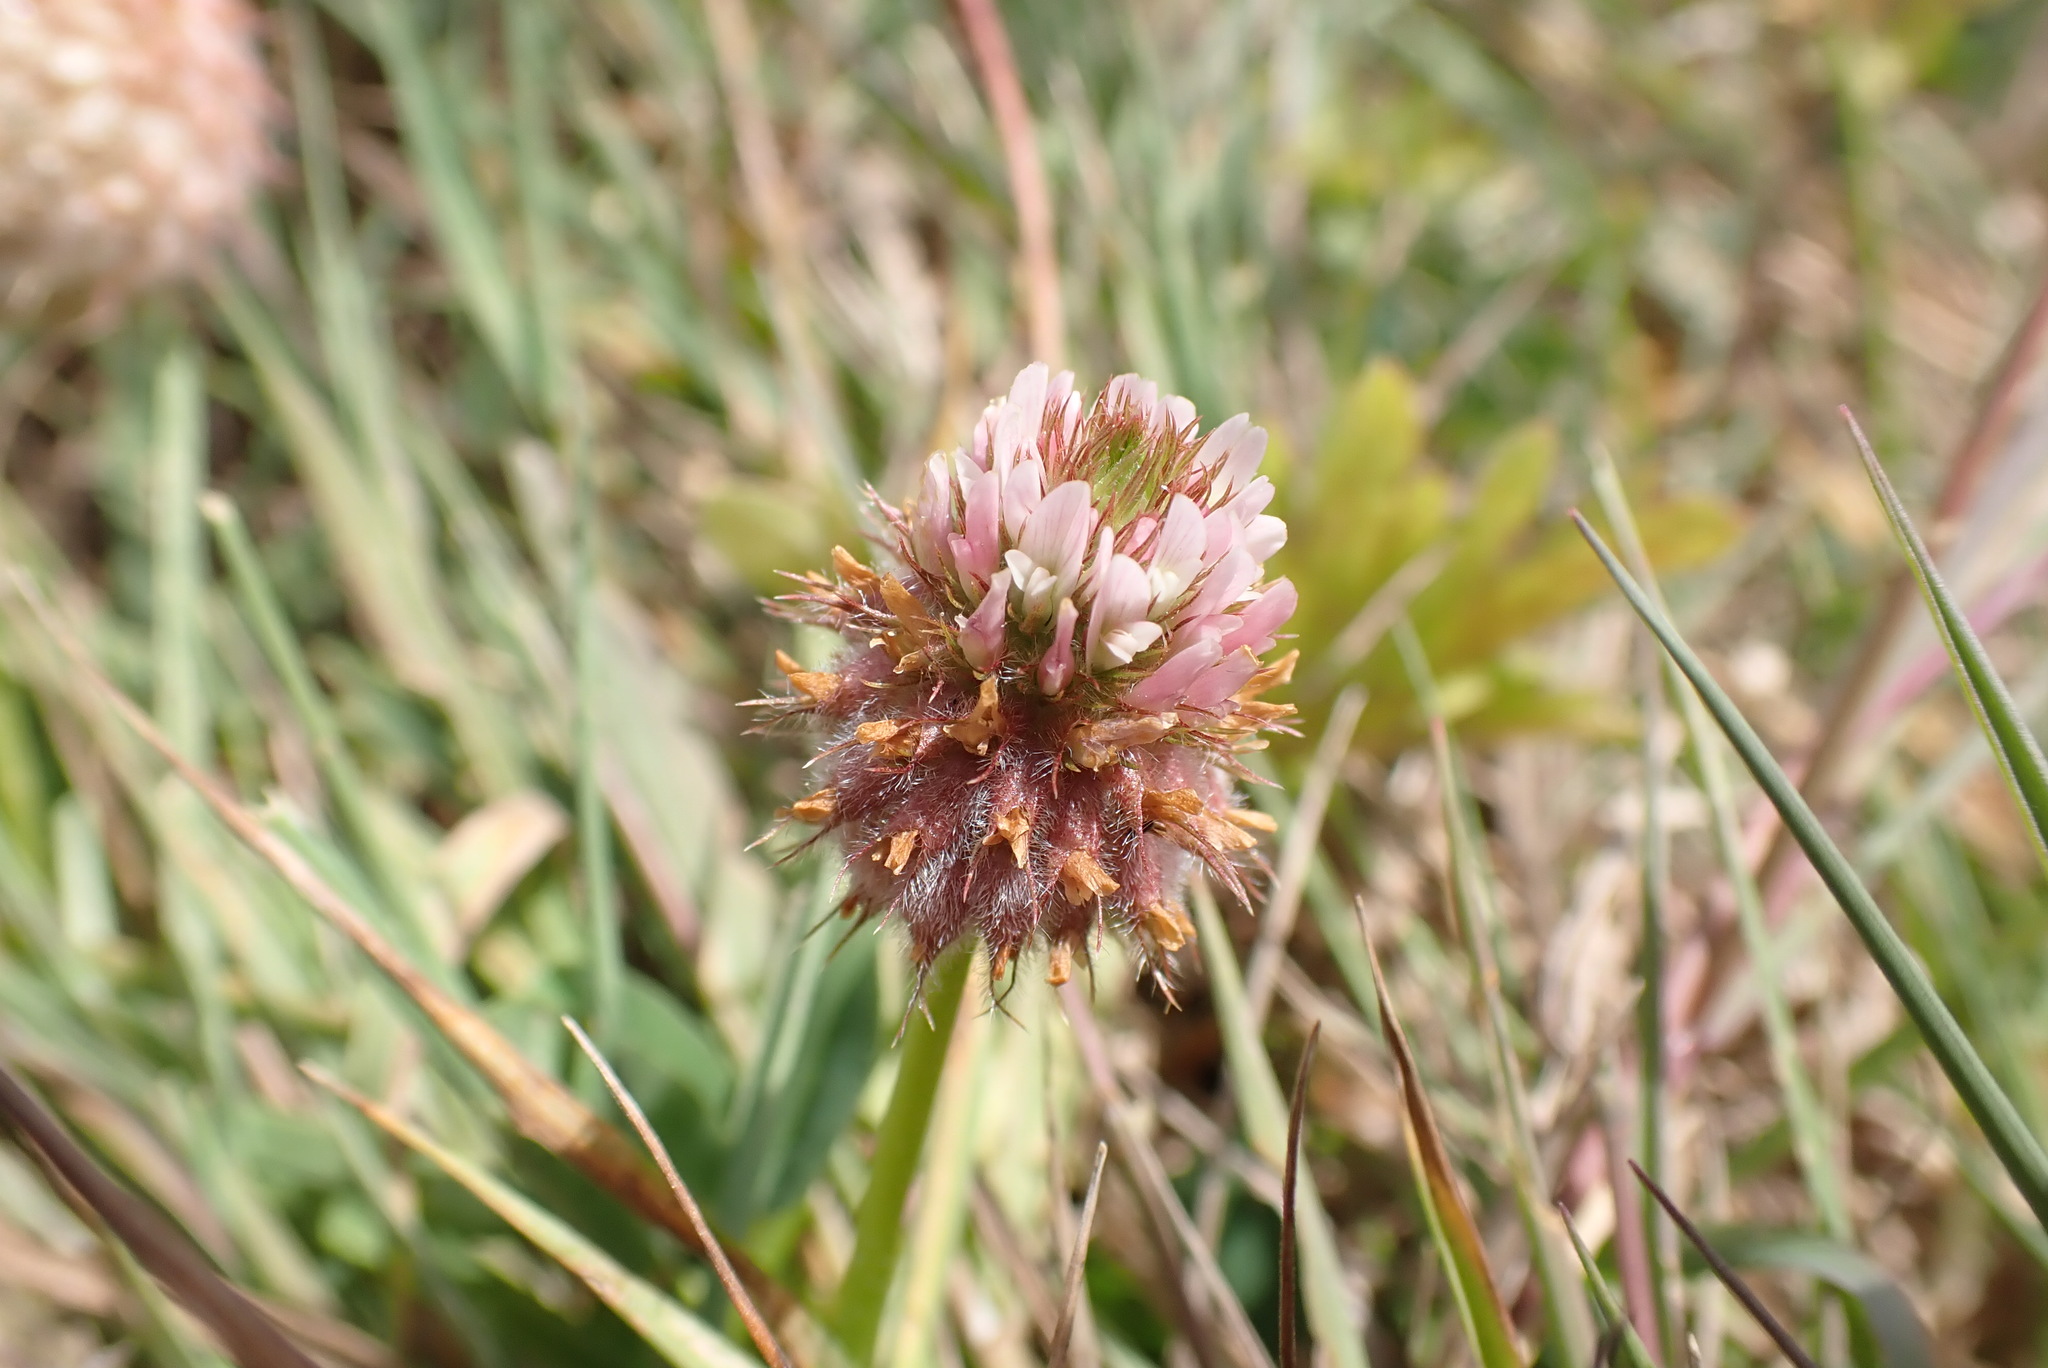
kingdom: Plantae
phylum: Tracheophyta
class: Magnoliopsida
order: Fabales
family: Fabaceae
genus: Trifolium
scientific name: Trifolium fragiferum
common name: Strawberry clover
